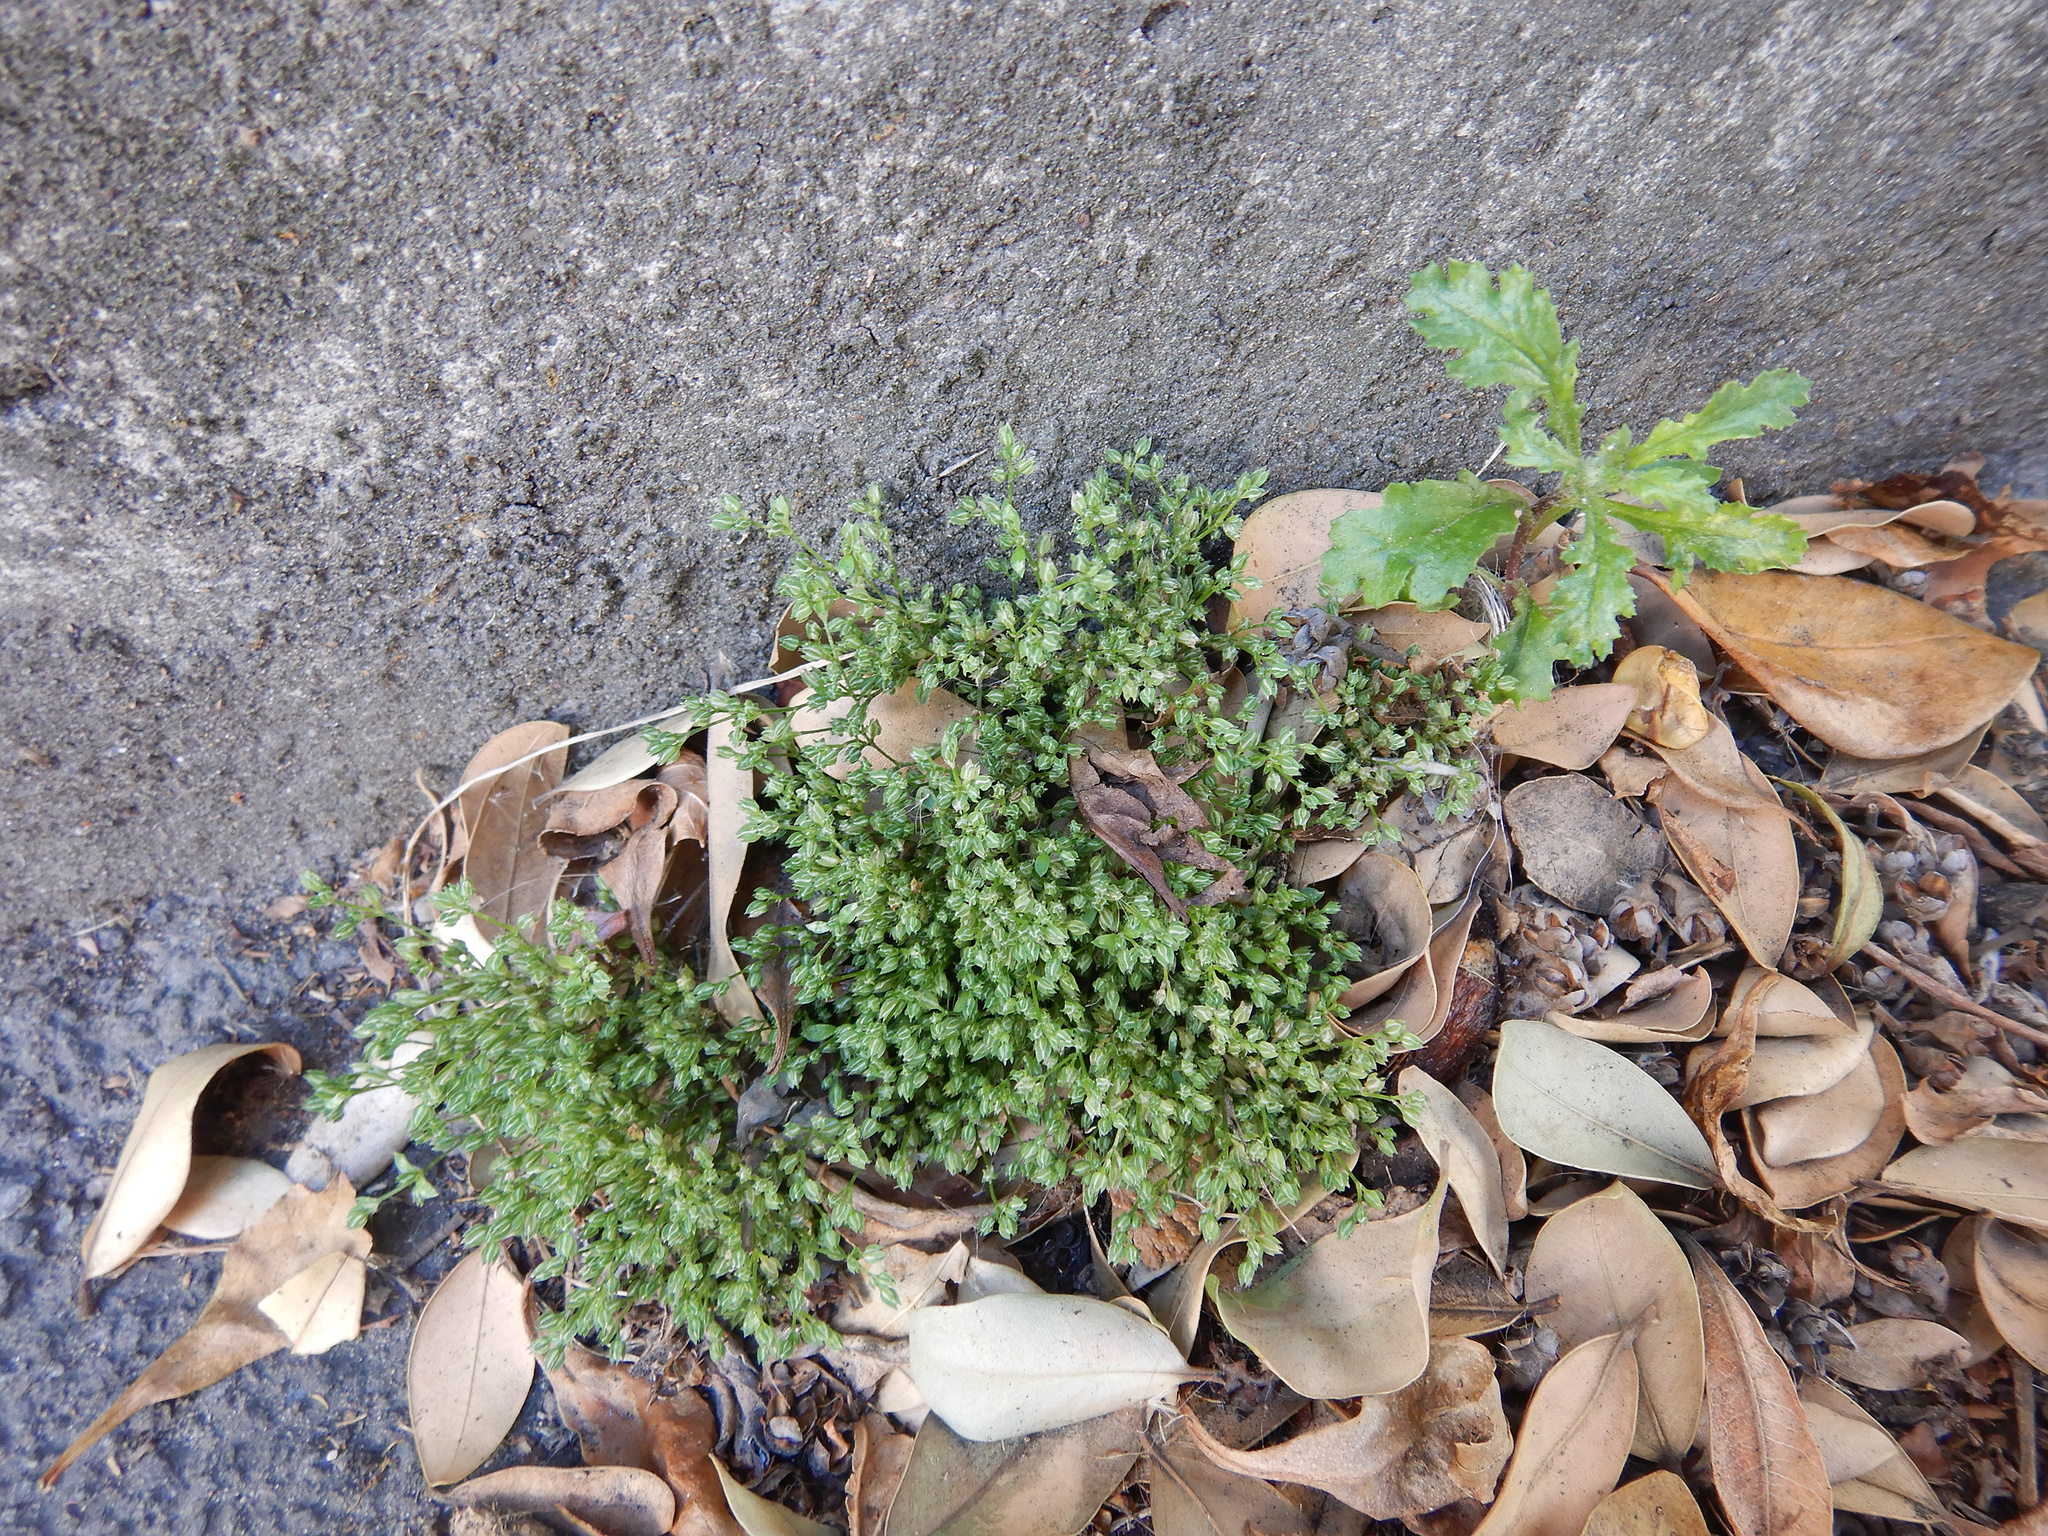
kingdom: Plantae
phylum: Tracheophyta
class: Magnoliopsida
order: Asterales
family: Asteraceae
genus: Senecio
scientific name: Senecio vulgaris
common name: Old-man-in-the-spring
